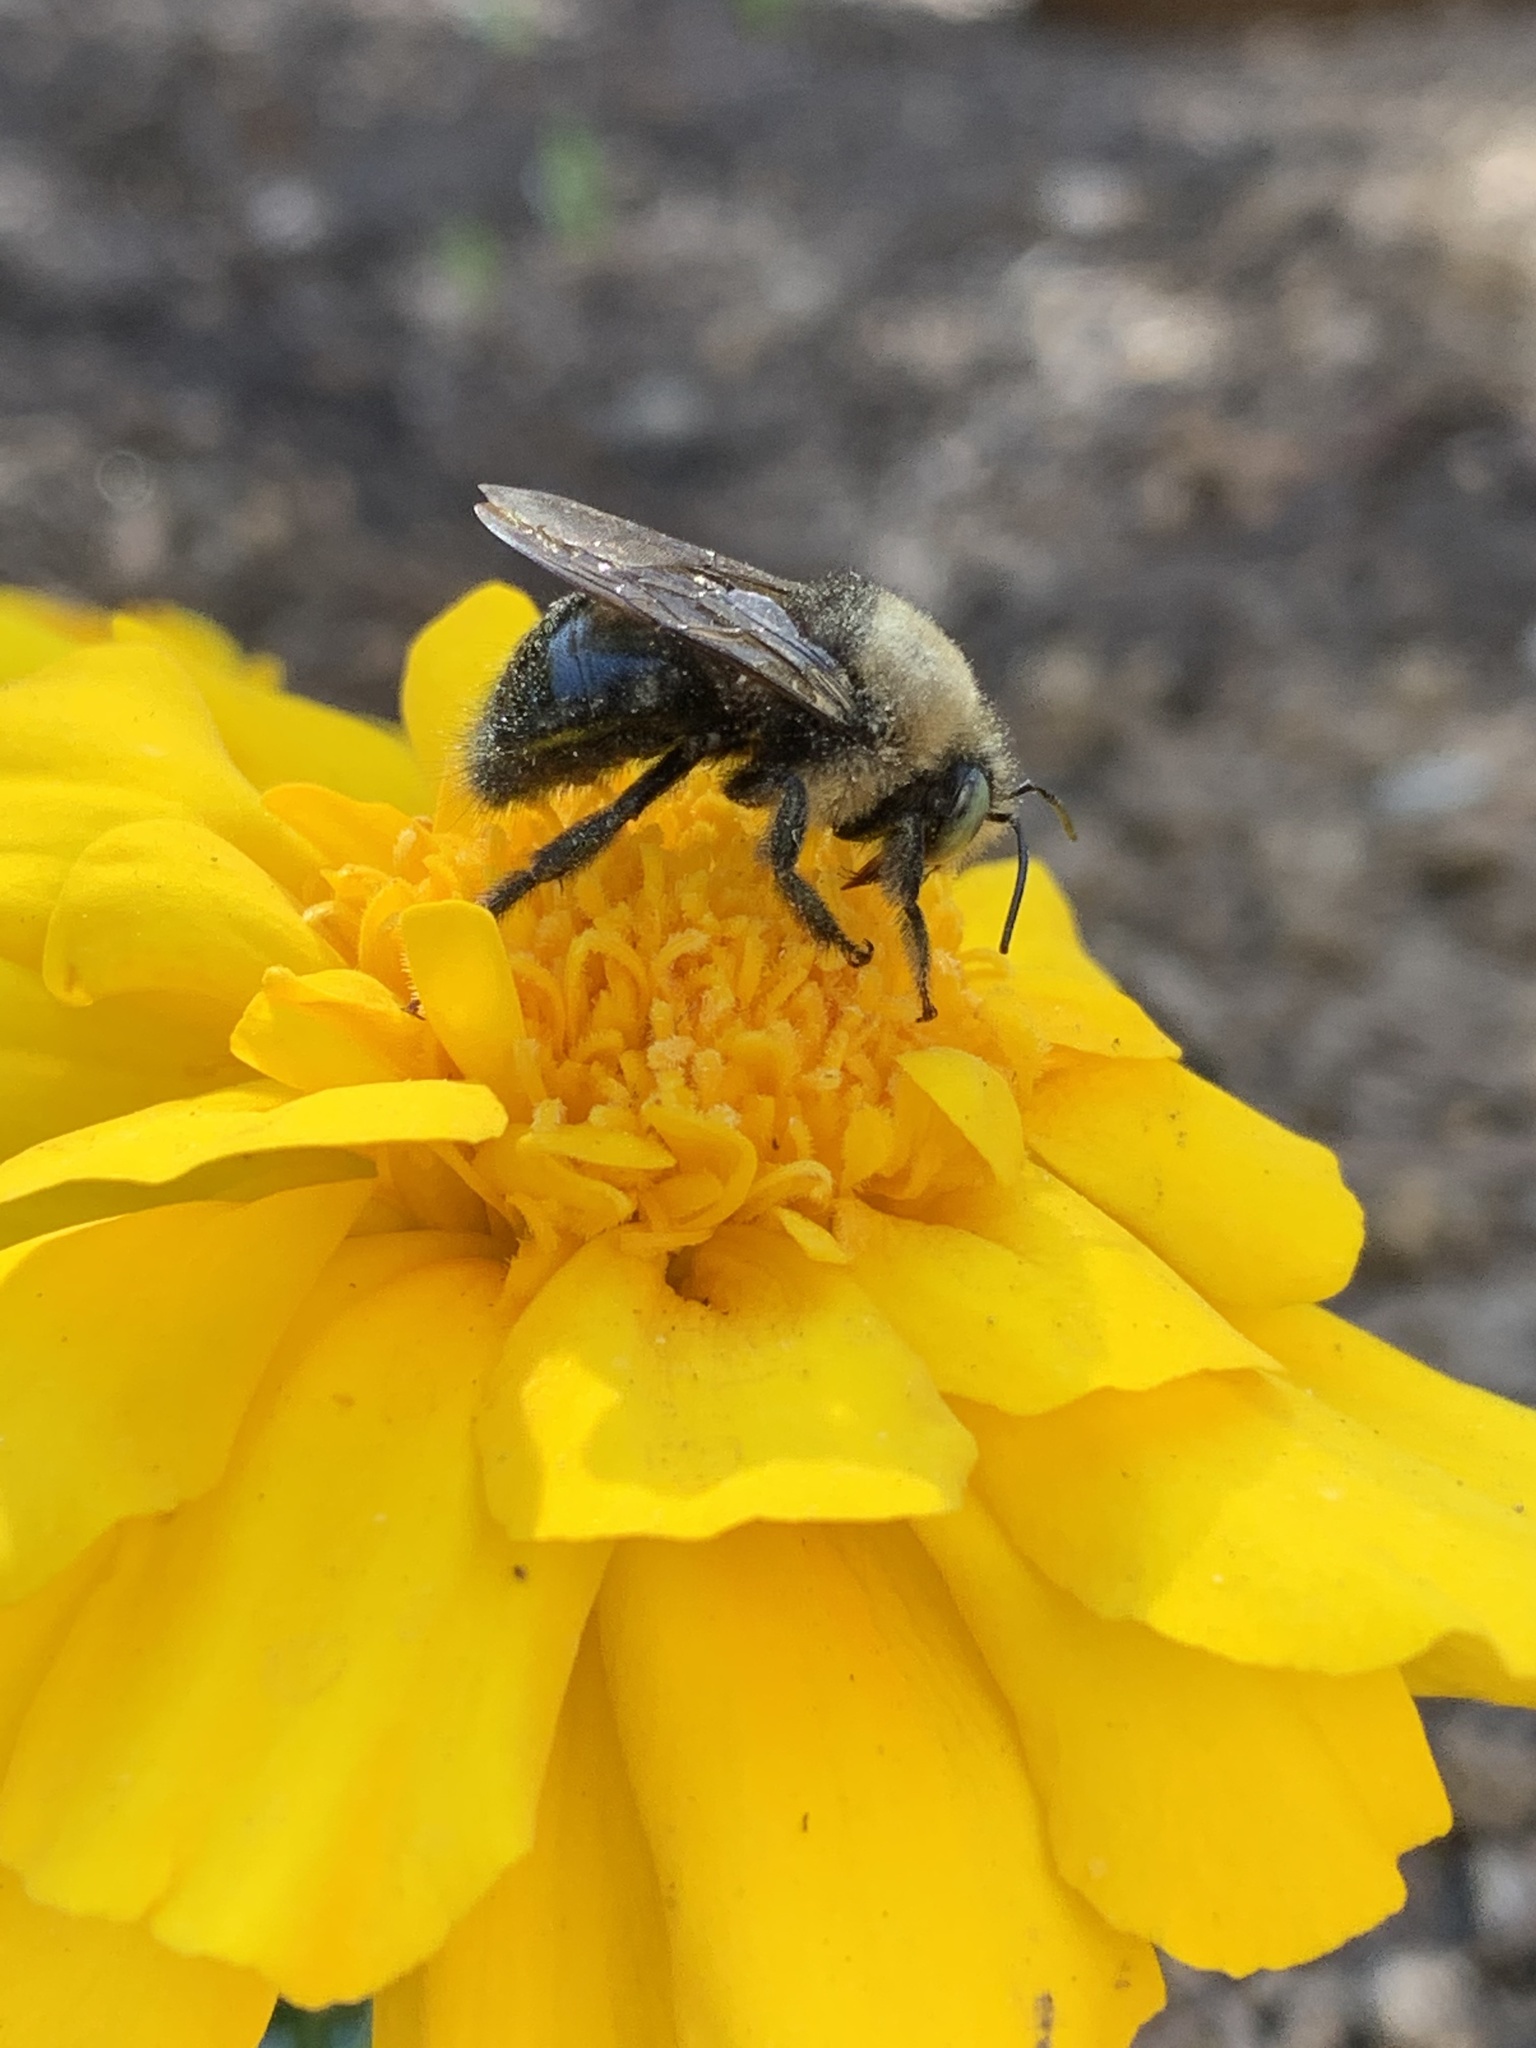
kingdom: Animalia
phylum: Arthropoda
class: Insecta
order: Hymenoptera
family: Apidae
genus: Xylocopa
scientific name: Xylocopa tabaniformis
